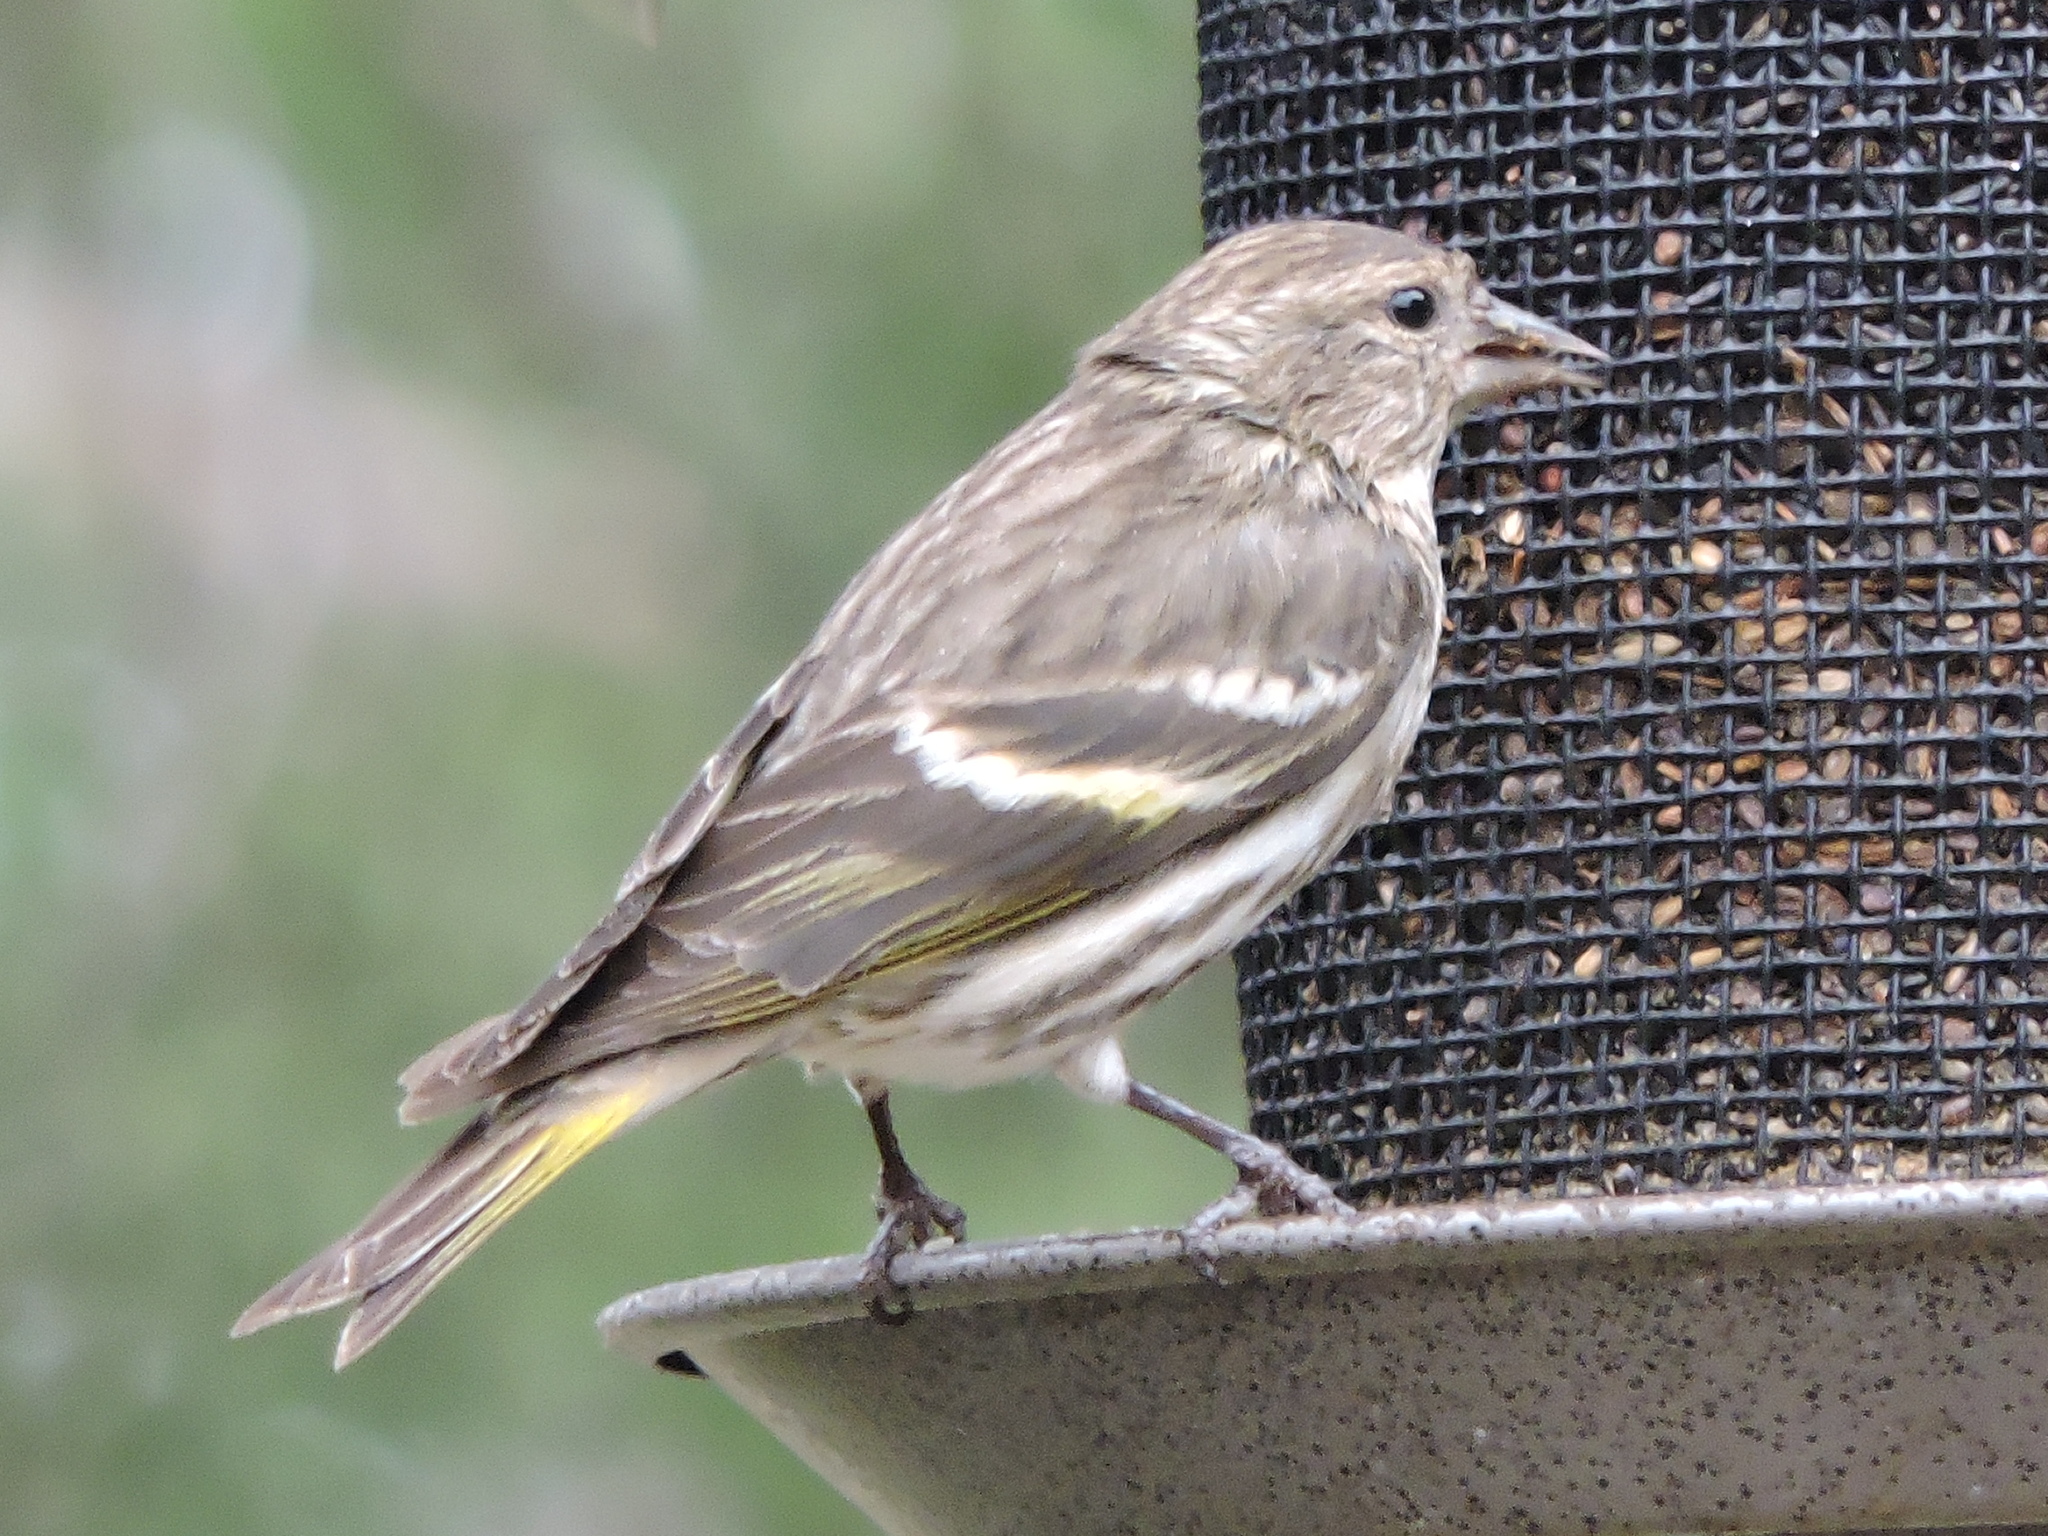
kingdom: Animalia
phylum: Chordata
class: Aves
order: Passeriformes
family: Fringillidae
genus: Spinus
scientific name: Spinus pinus
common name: Pine siskin
